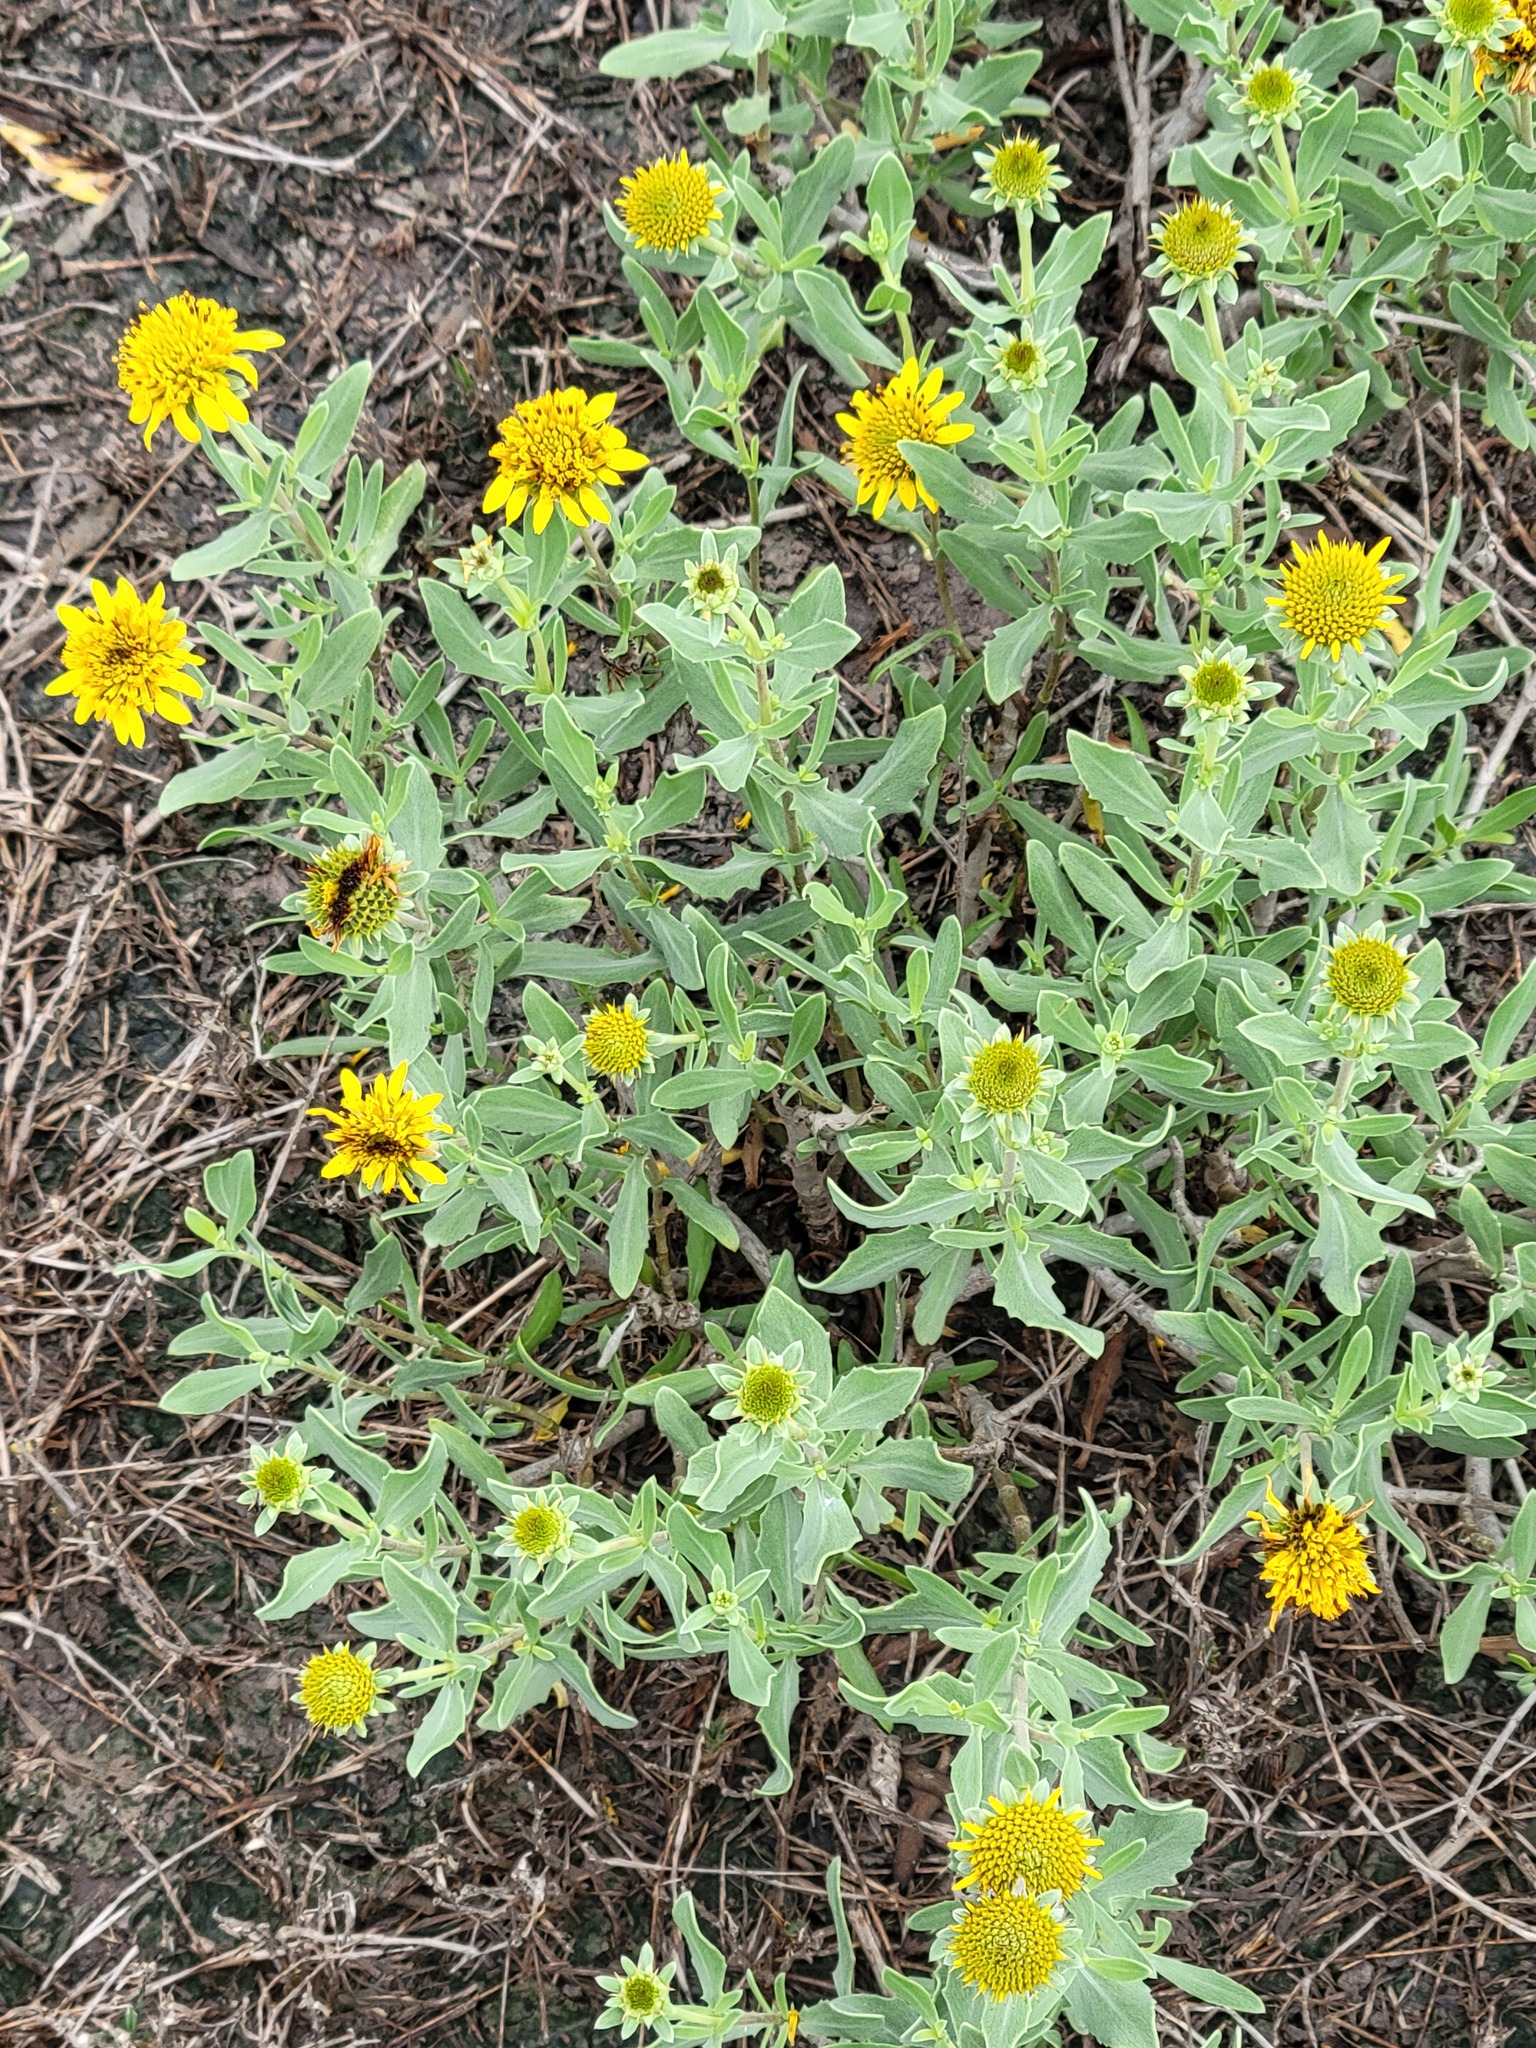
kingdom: Plantae
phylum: Tracheophyta
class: Magnoliopsida
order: Asterales
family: Asteraceae
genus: Borrichia
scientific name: Borrichia frutescens
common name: Sea oxeye
